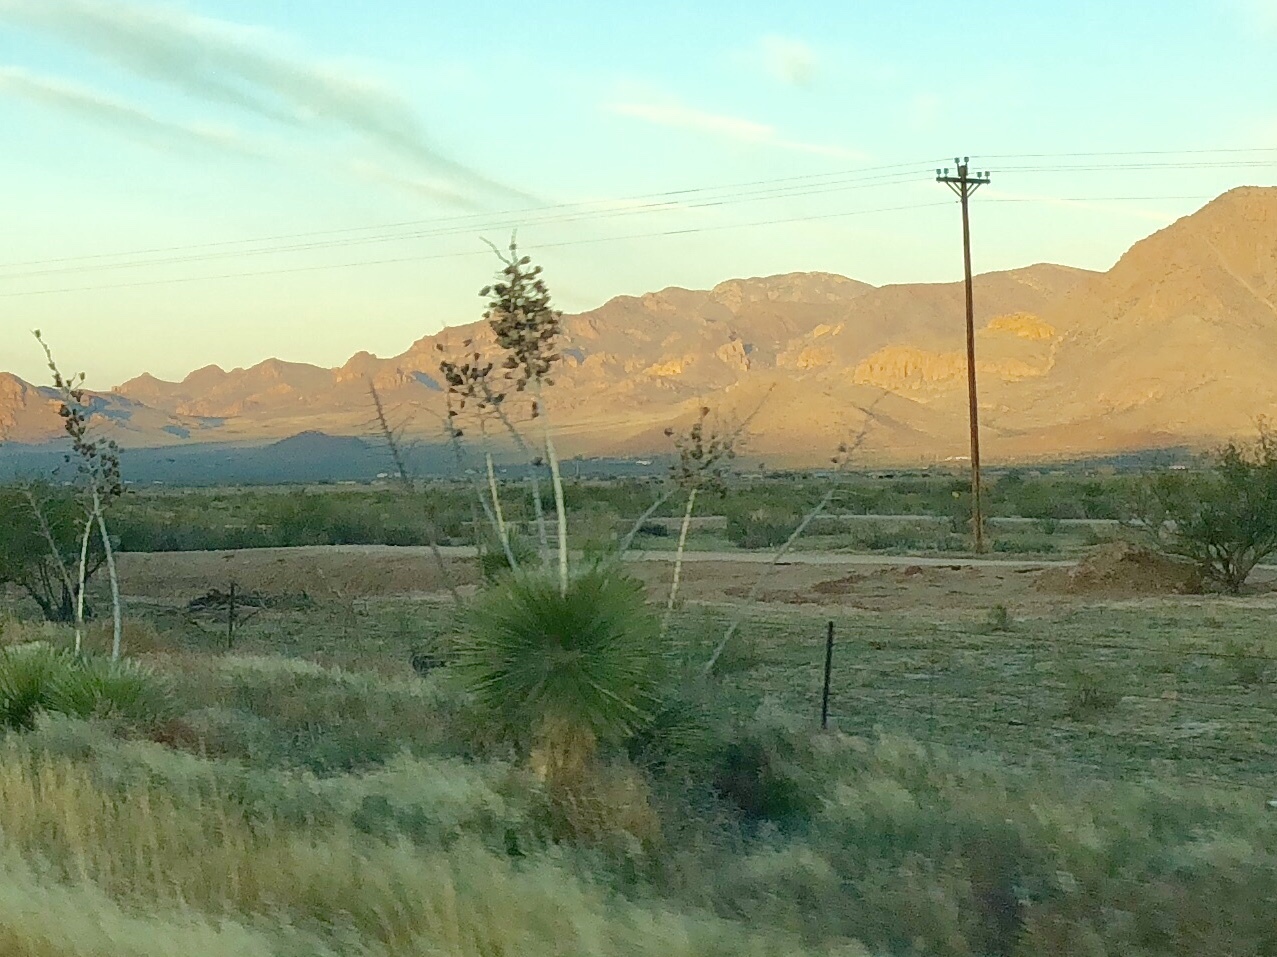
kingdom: Plantae
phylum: Tracheophyta
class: Liliopsida
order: Asparagales
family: Asparagaceae
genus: Yucca
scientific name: Yucca elata
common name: Palmella
